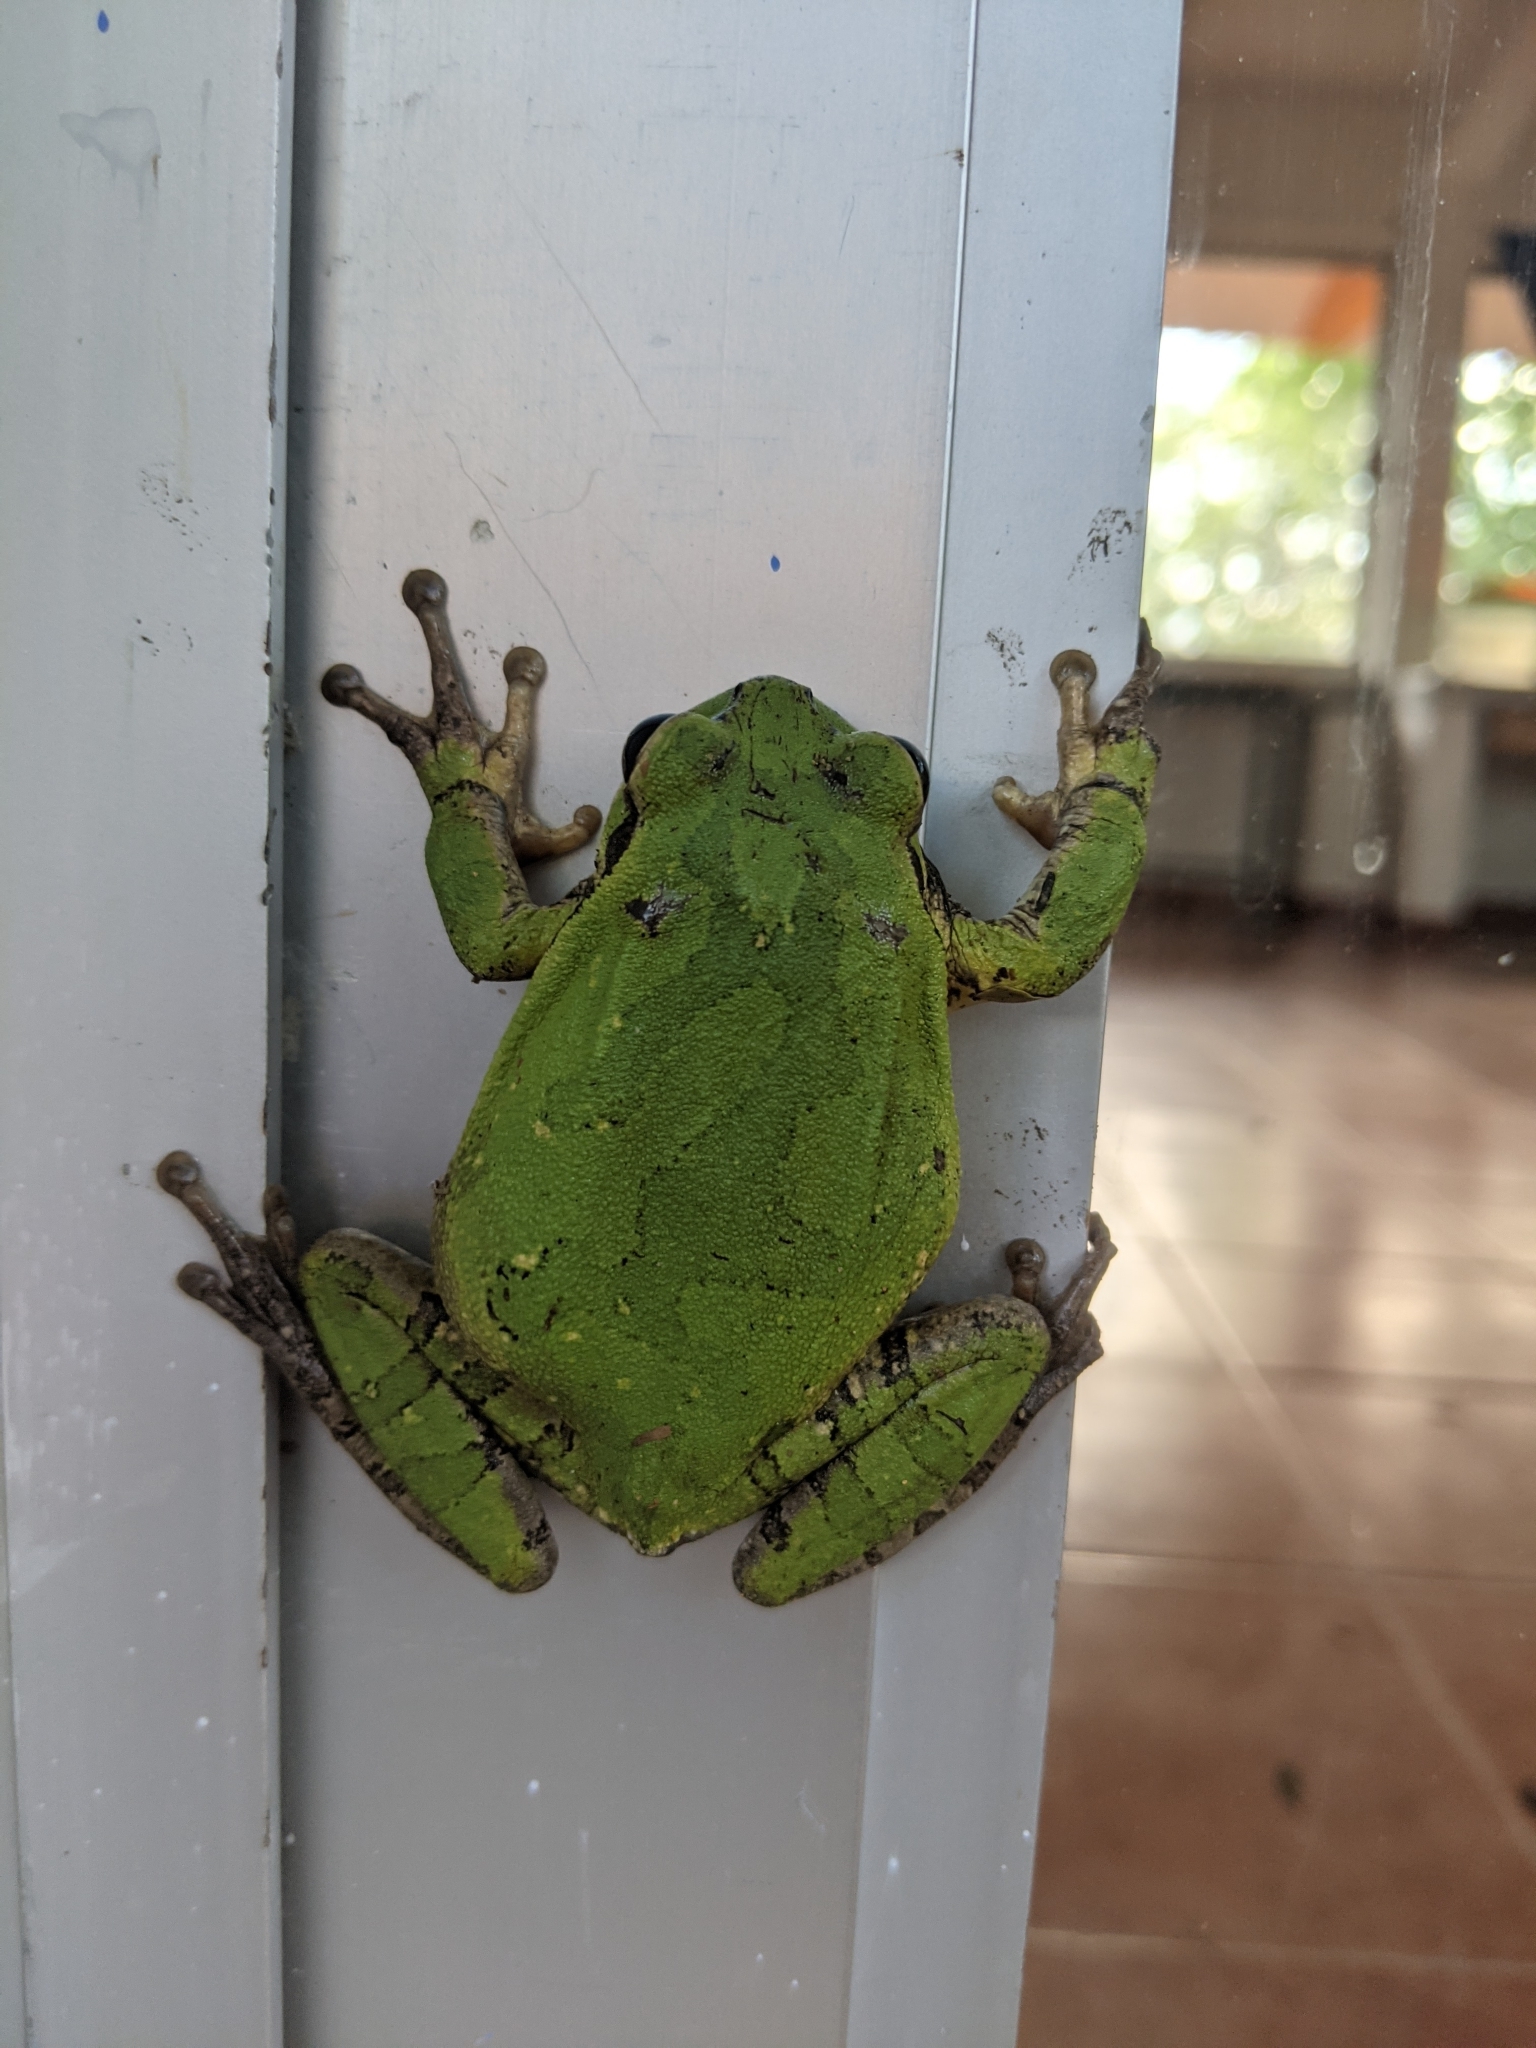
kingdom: Animalia
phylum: Chordata
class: Amphibia
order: Anura
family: Hylidae
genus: Smilisca
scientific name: Smilisca baudinii
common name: Mexican smilisca
